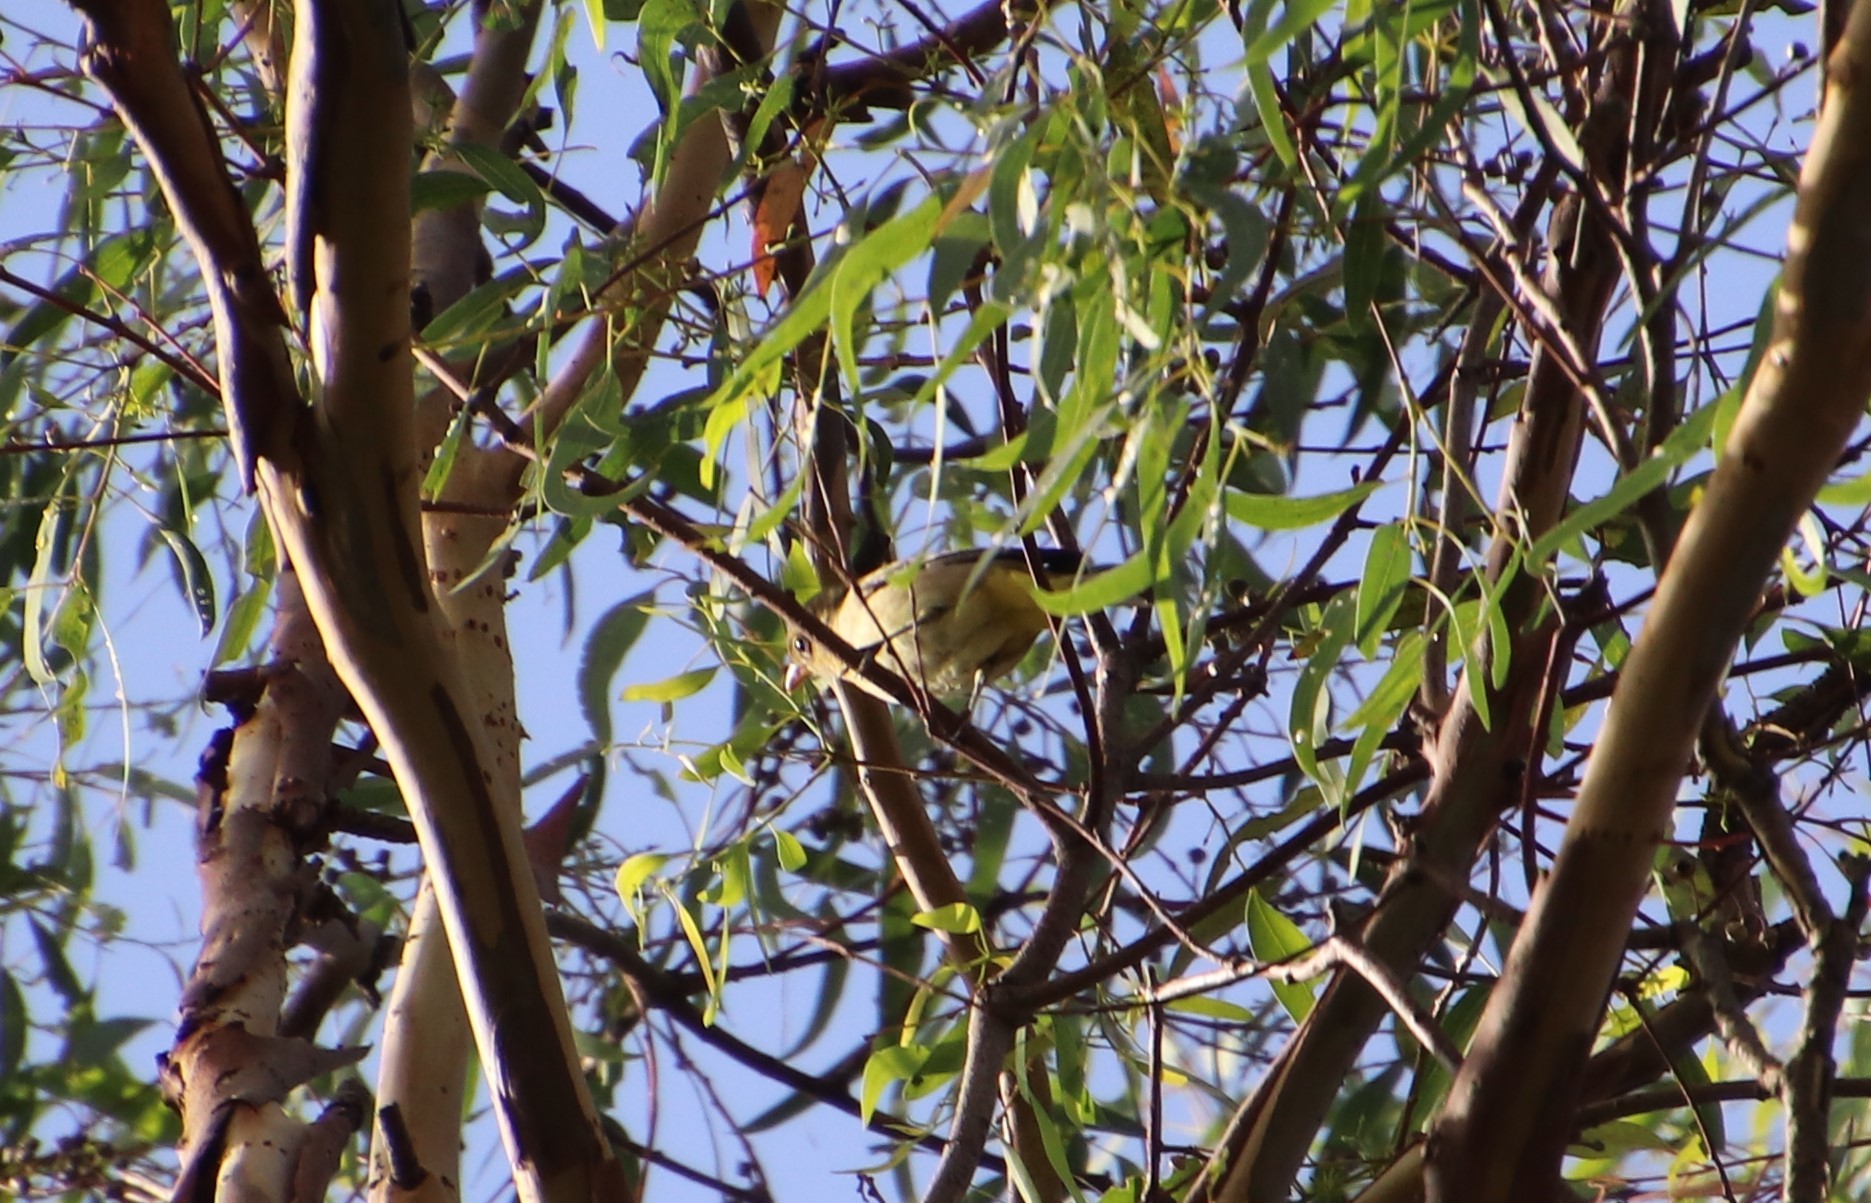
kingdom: Animalia
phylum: Chordata
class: Aves
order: Passeriformes
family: Cardinalidae
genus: Piranga
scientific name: Piranga ludoviciana
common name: Western tanager
